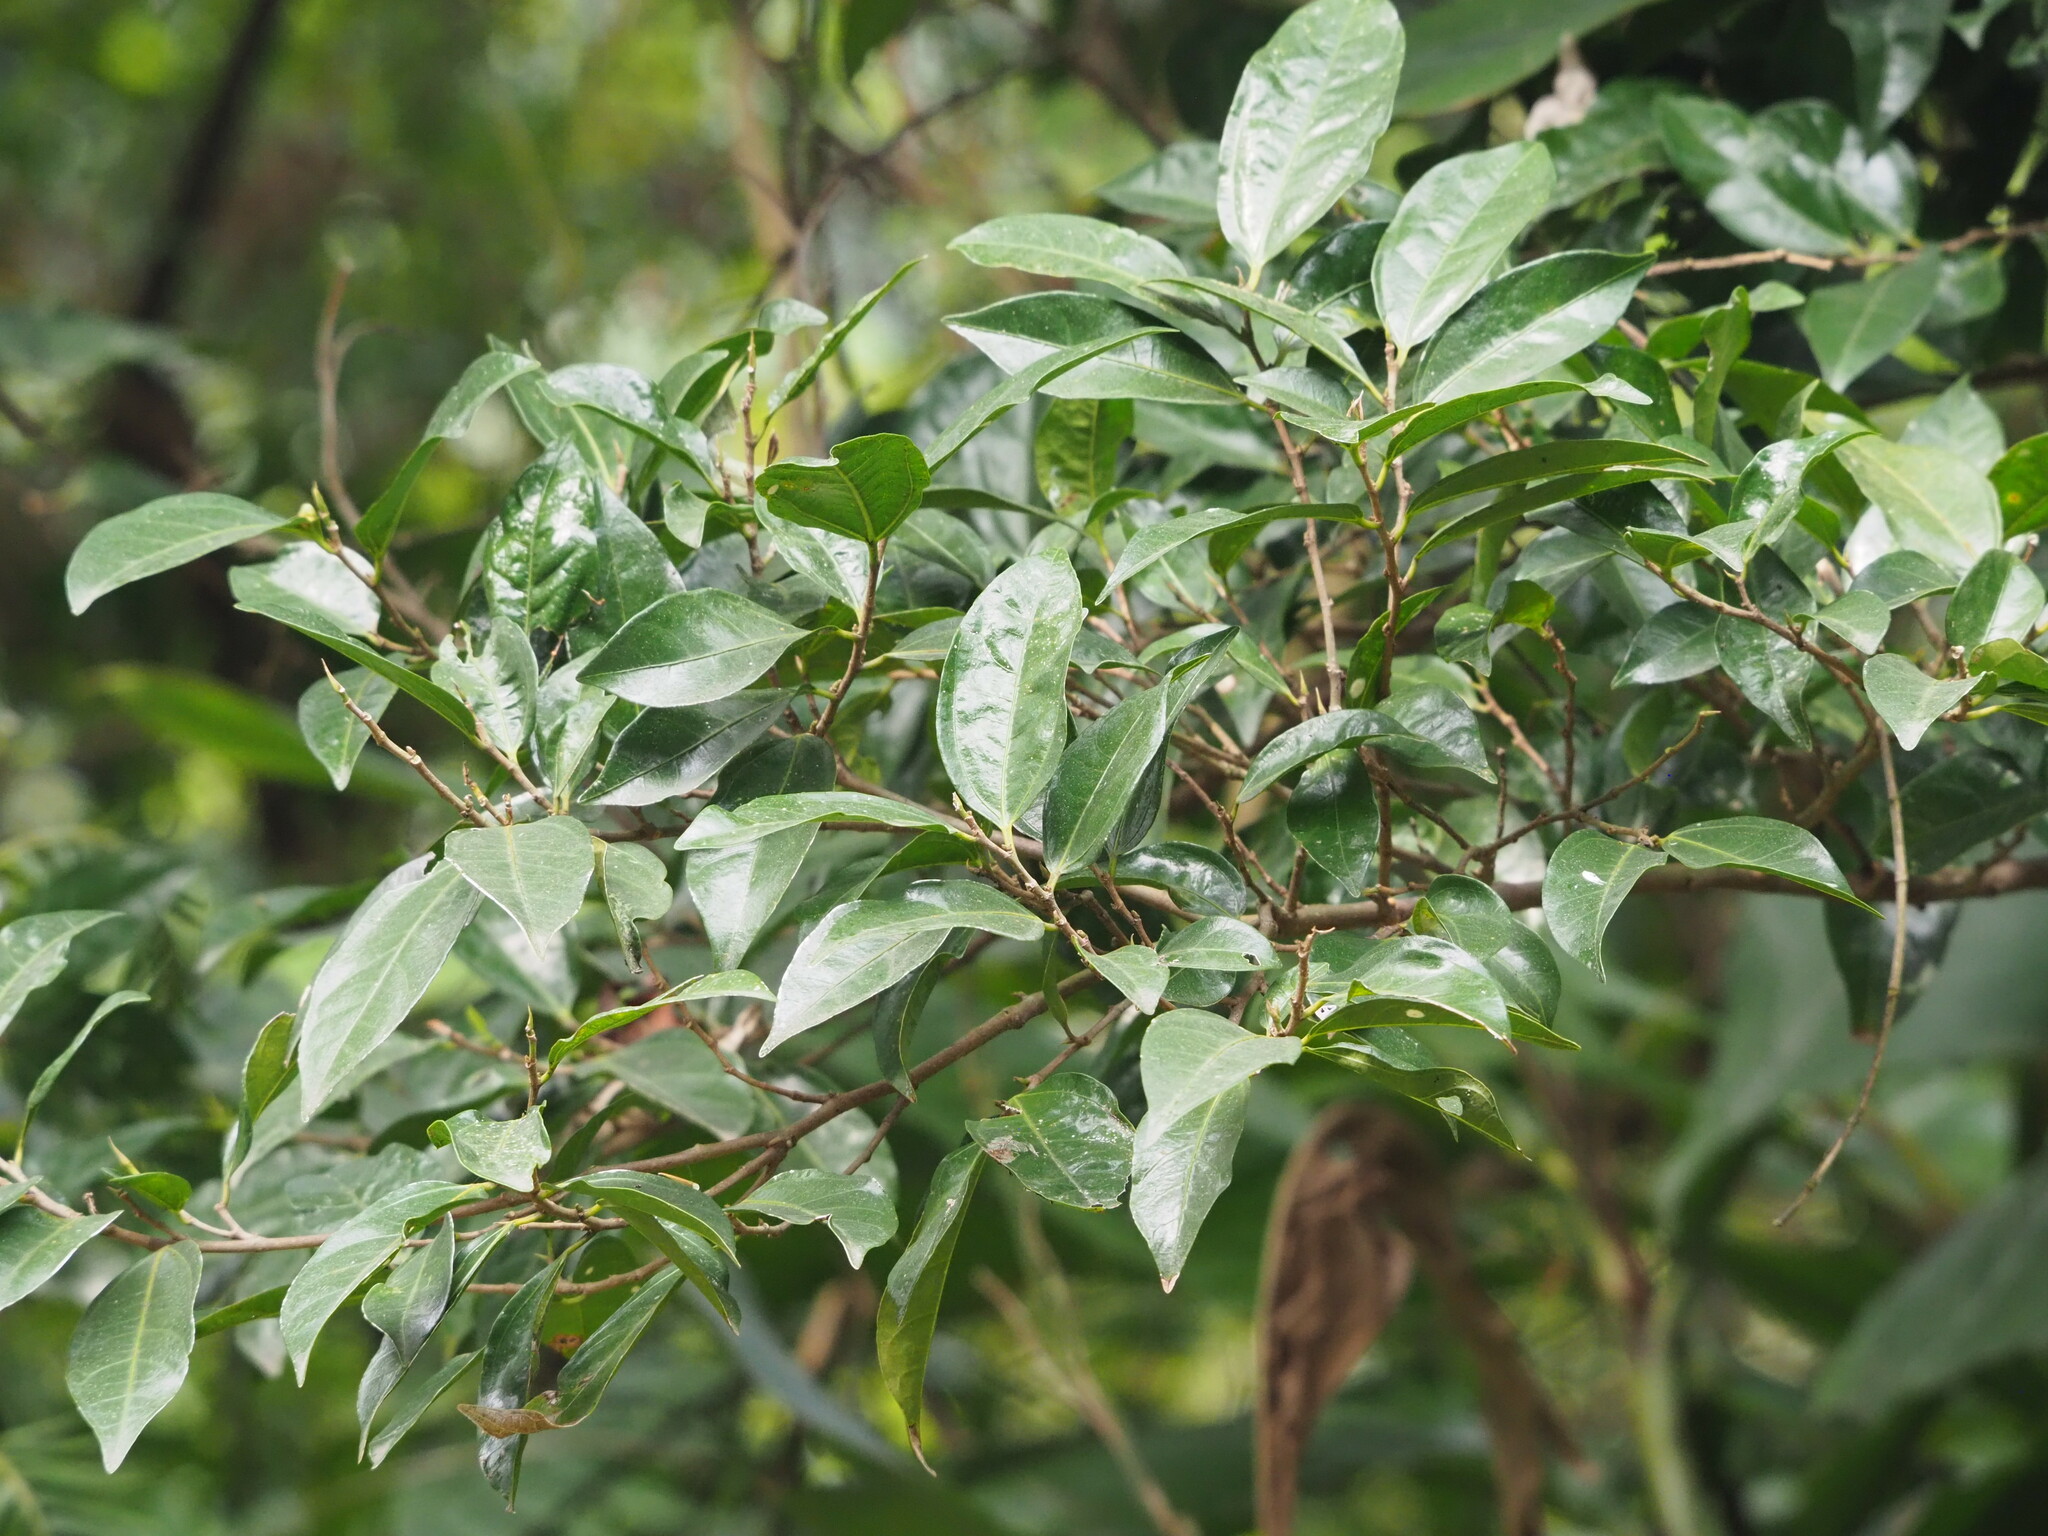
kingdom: Plantae
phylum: Tracheophyta
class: Magnoliopsida
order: Rosales
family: Moraceae
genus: Ficus
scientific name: Ficus ampelos
